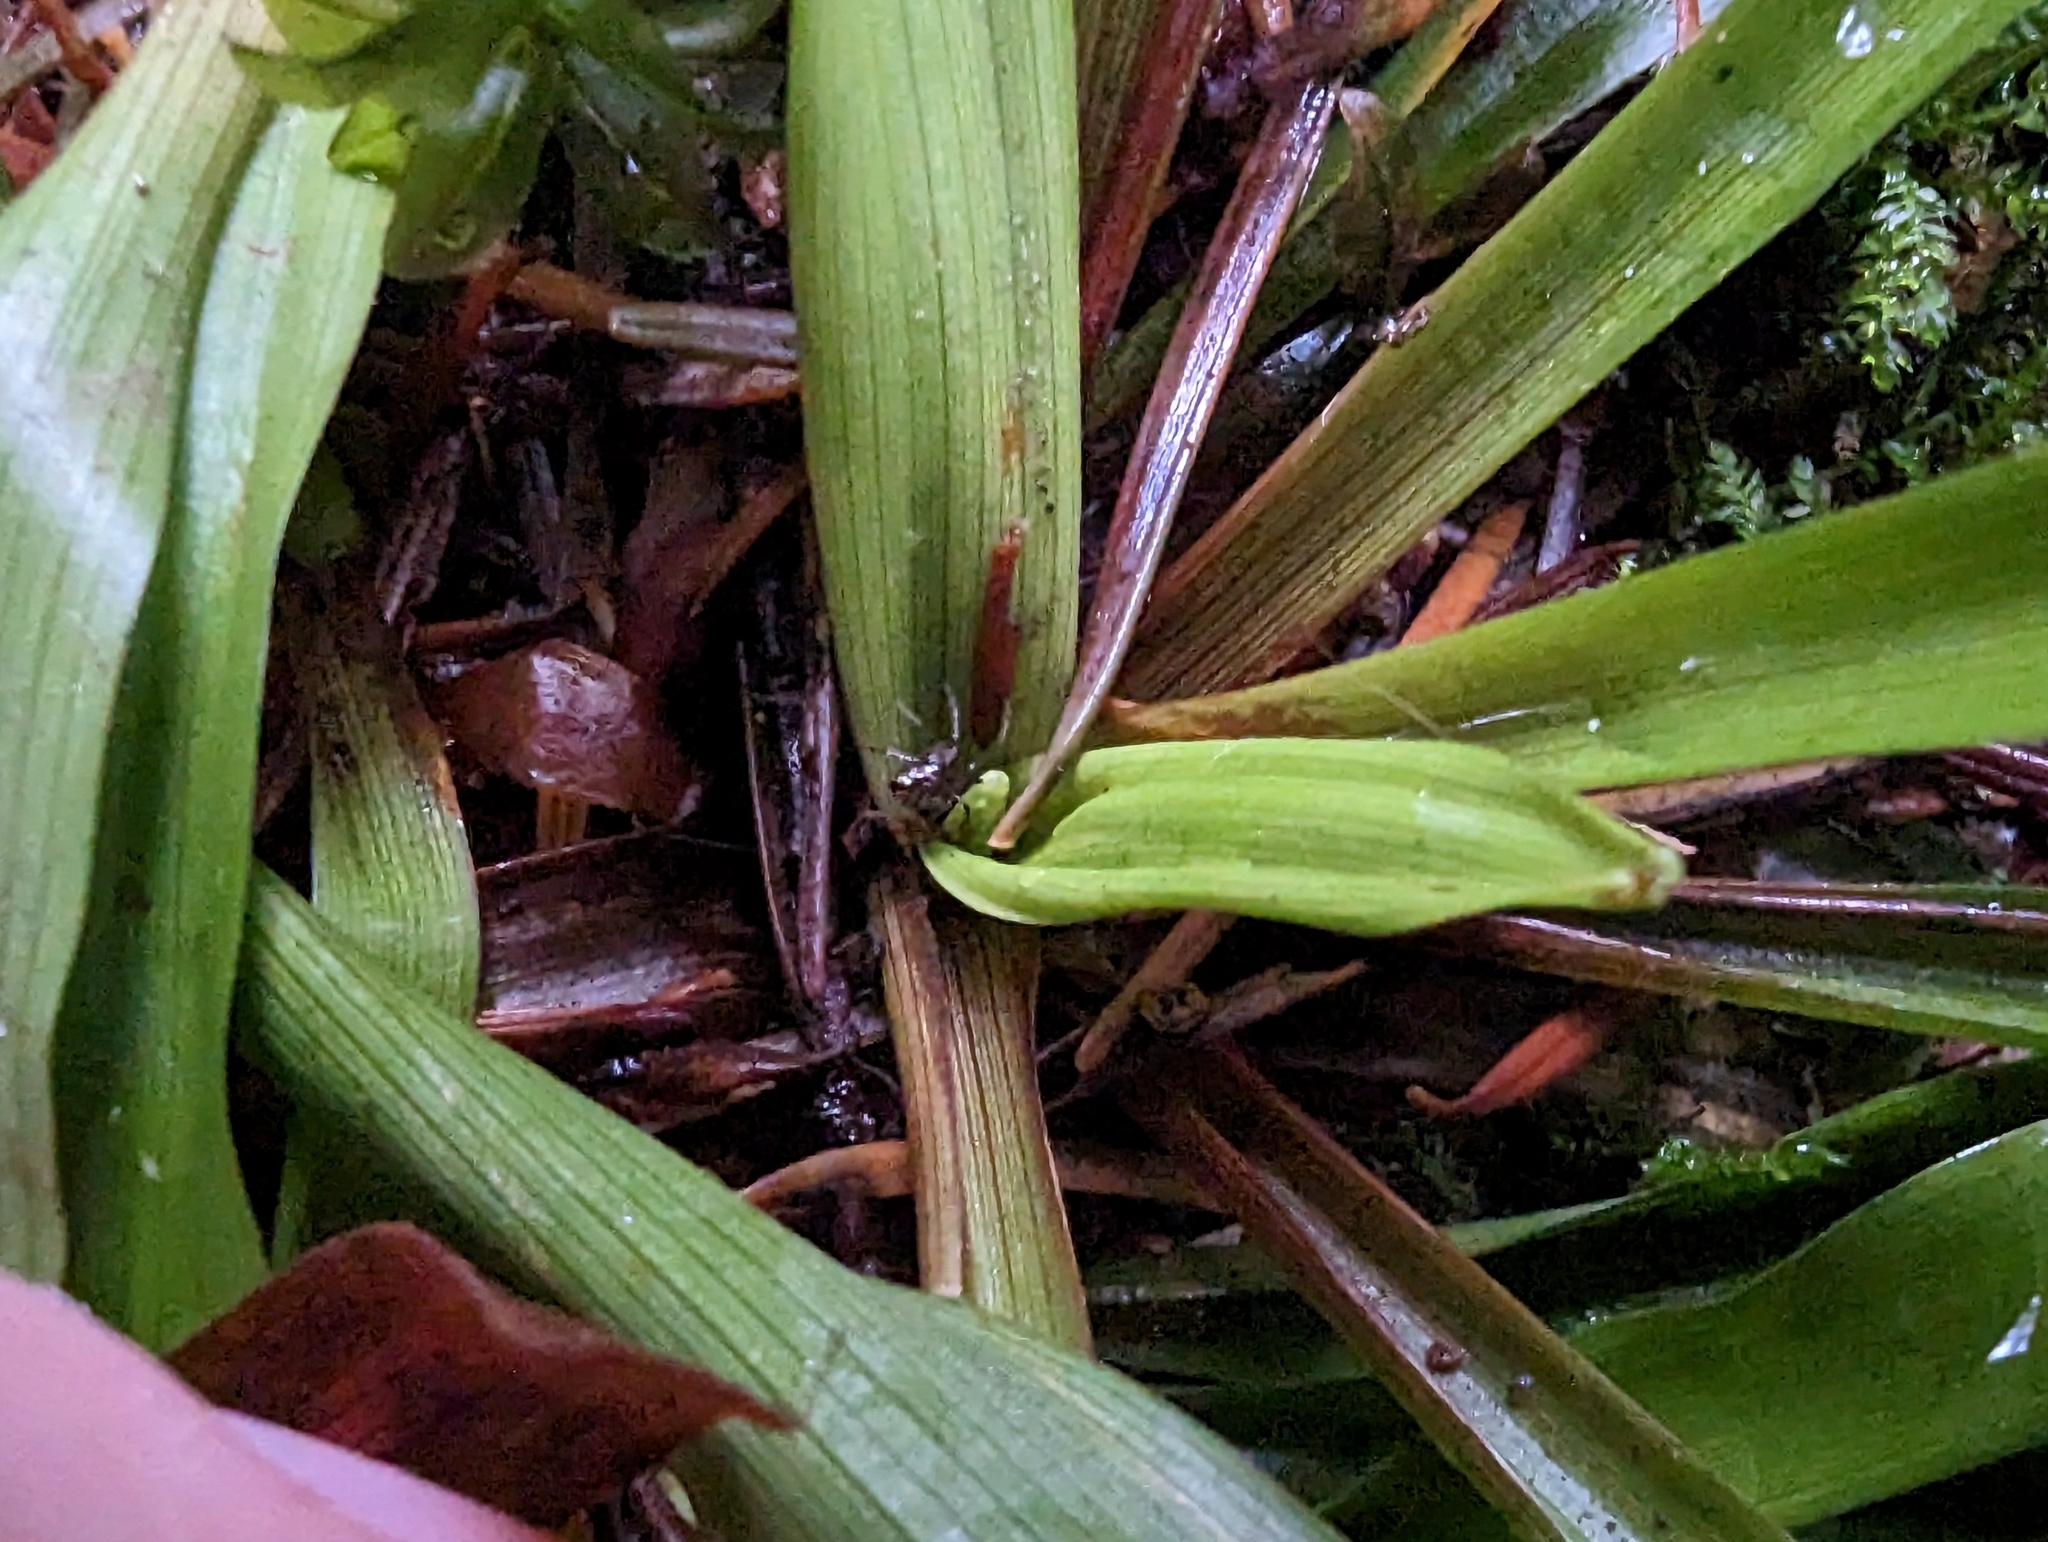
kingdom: Plantae
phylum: Tracheophyta
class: Liliopsida
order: Poales
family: Juncaceae
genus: Luzula
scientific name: Luzula parviflora
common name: Millet woodrush
